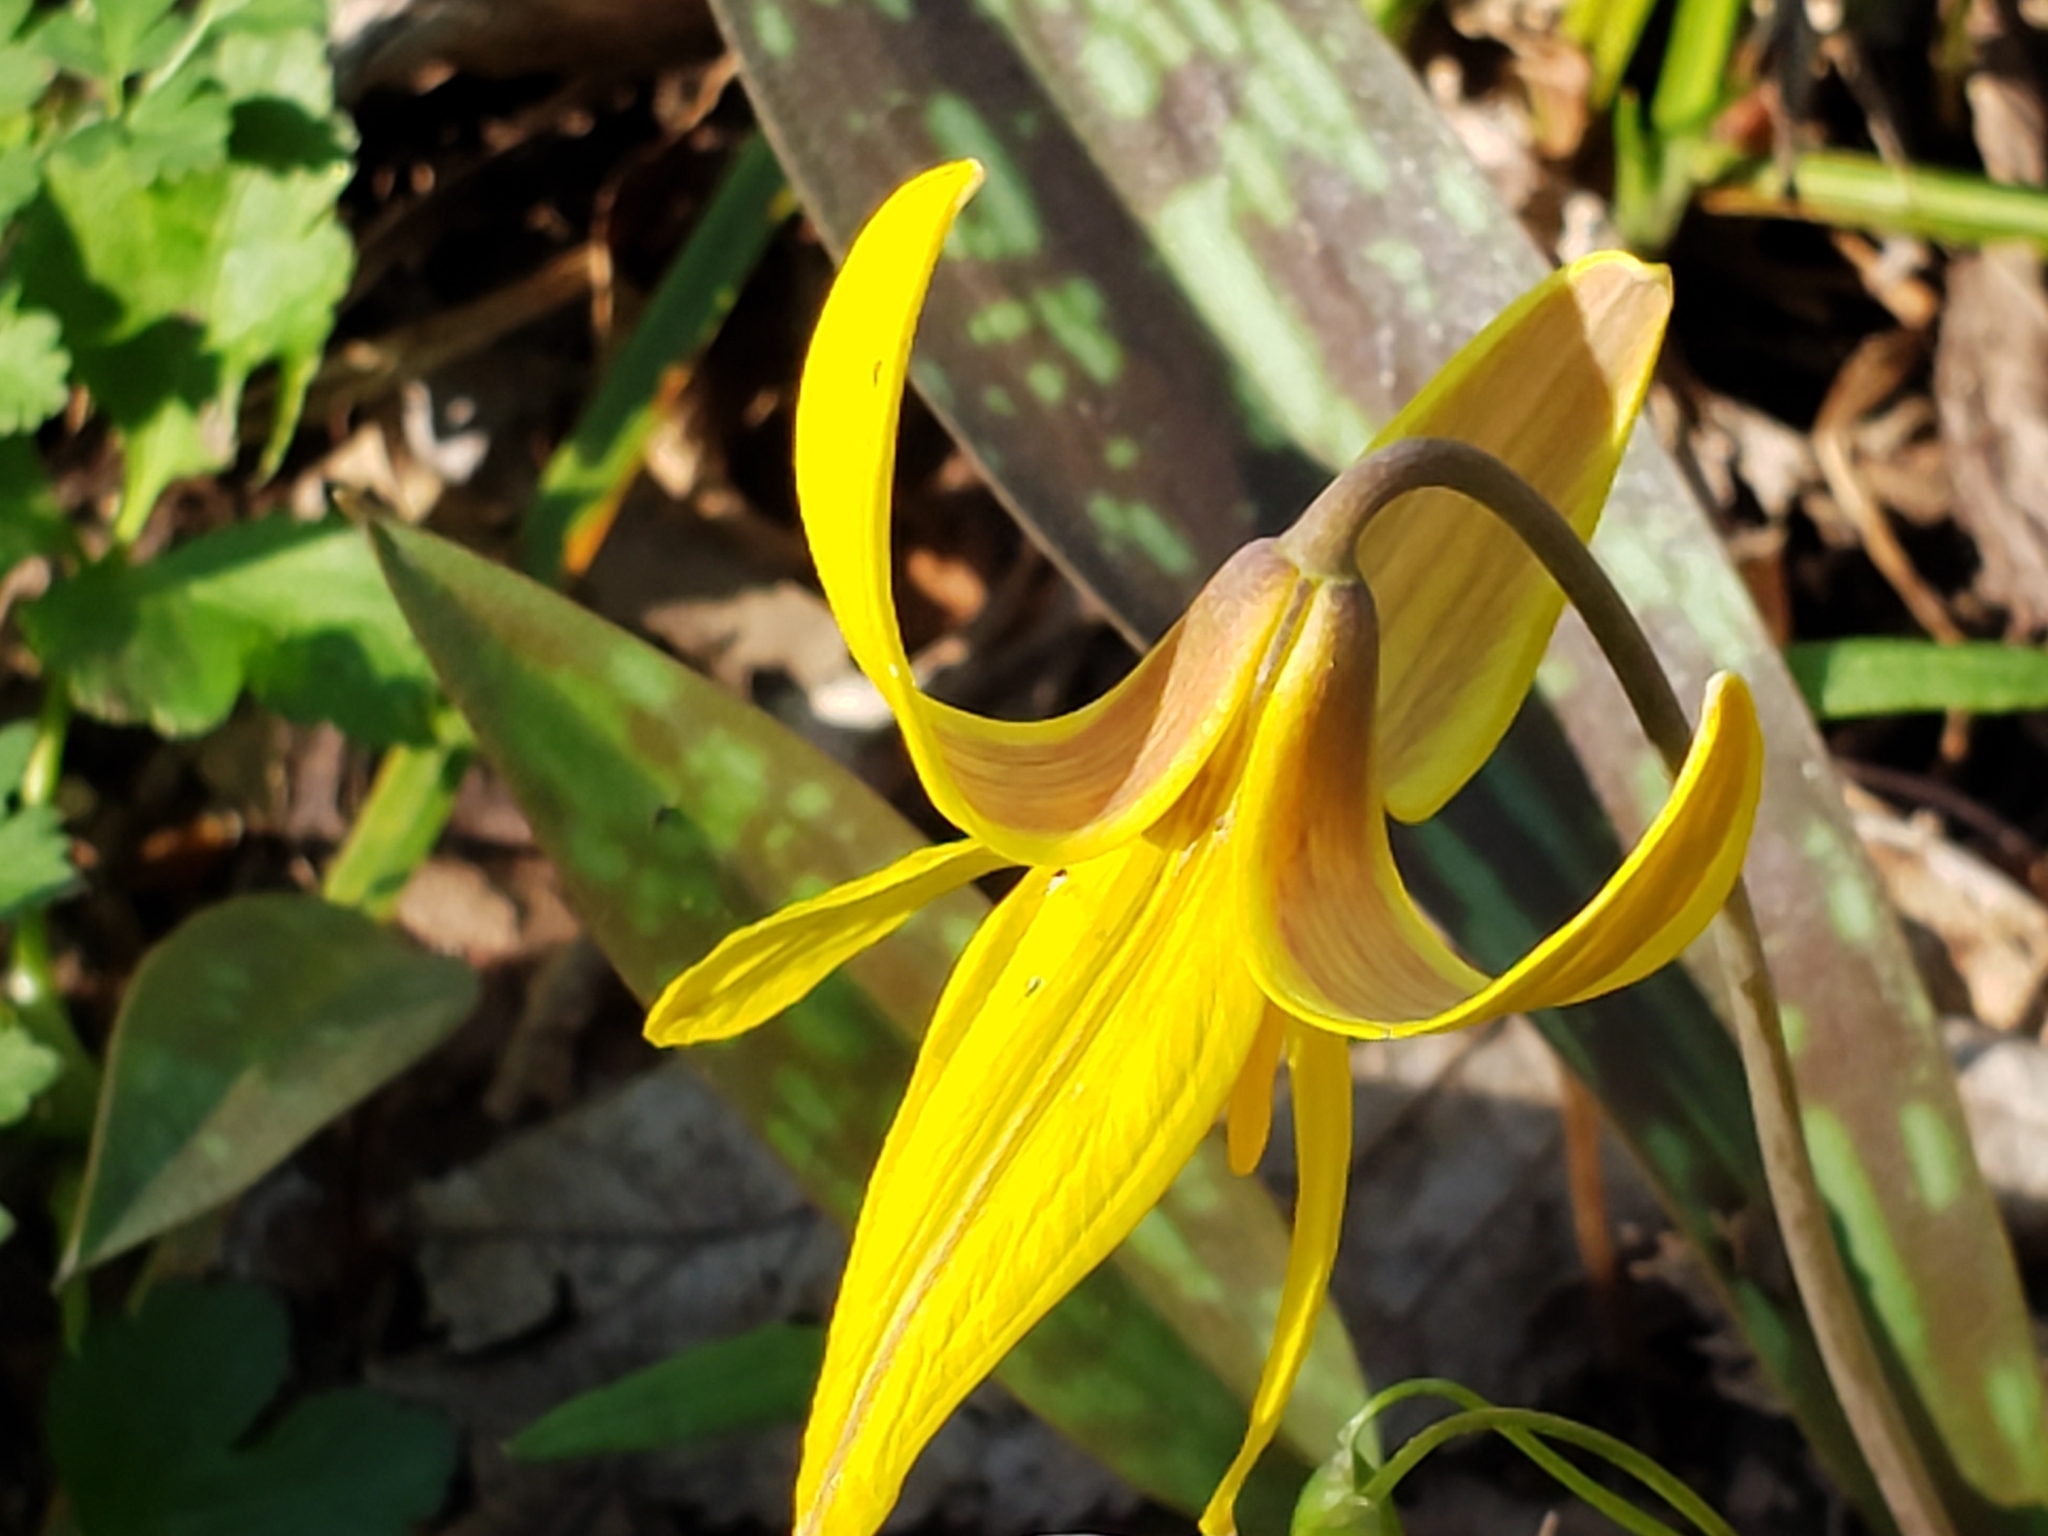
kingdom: Plantae
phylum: Tracheophyta
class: Liliopsida
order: Liliales
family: Liliaceae
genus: Erythronium
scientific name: Erythronium americanum
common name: Yellow adder's-tongue
